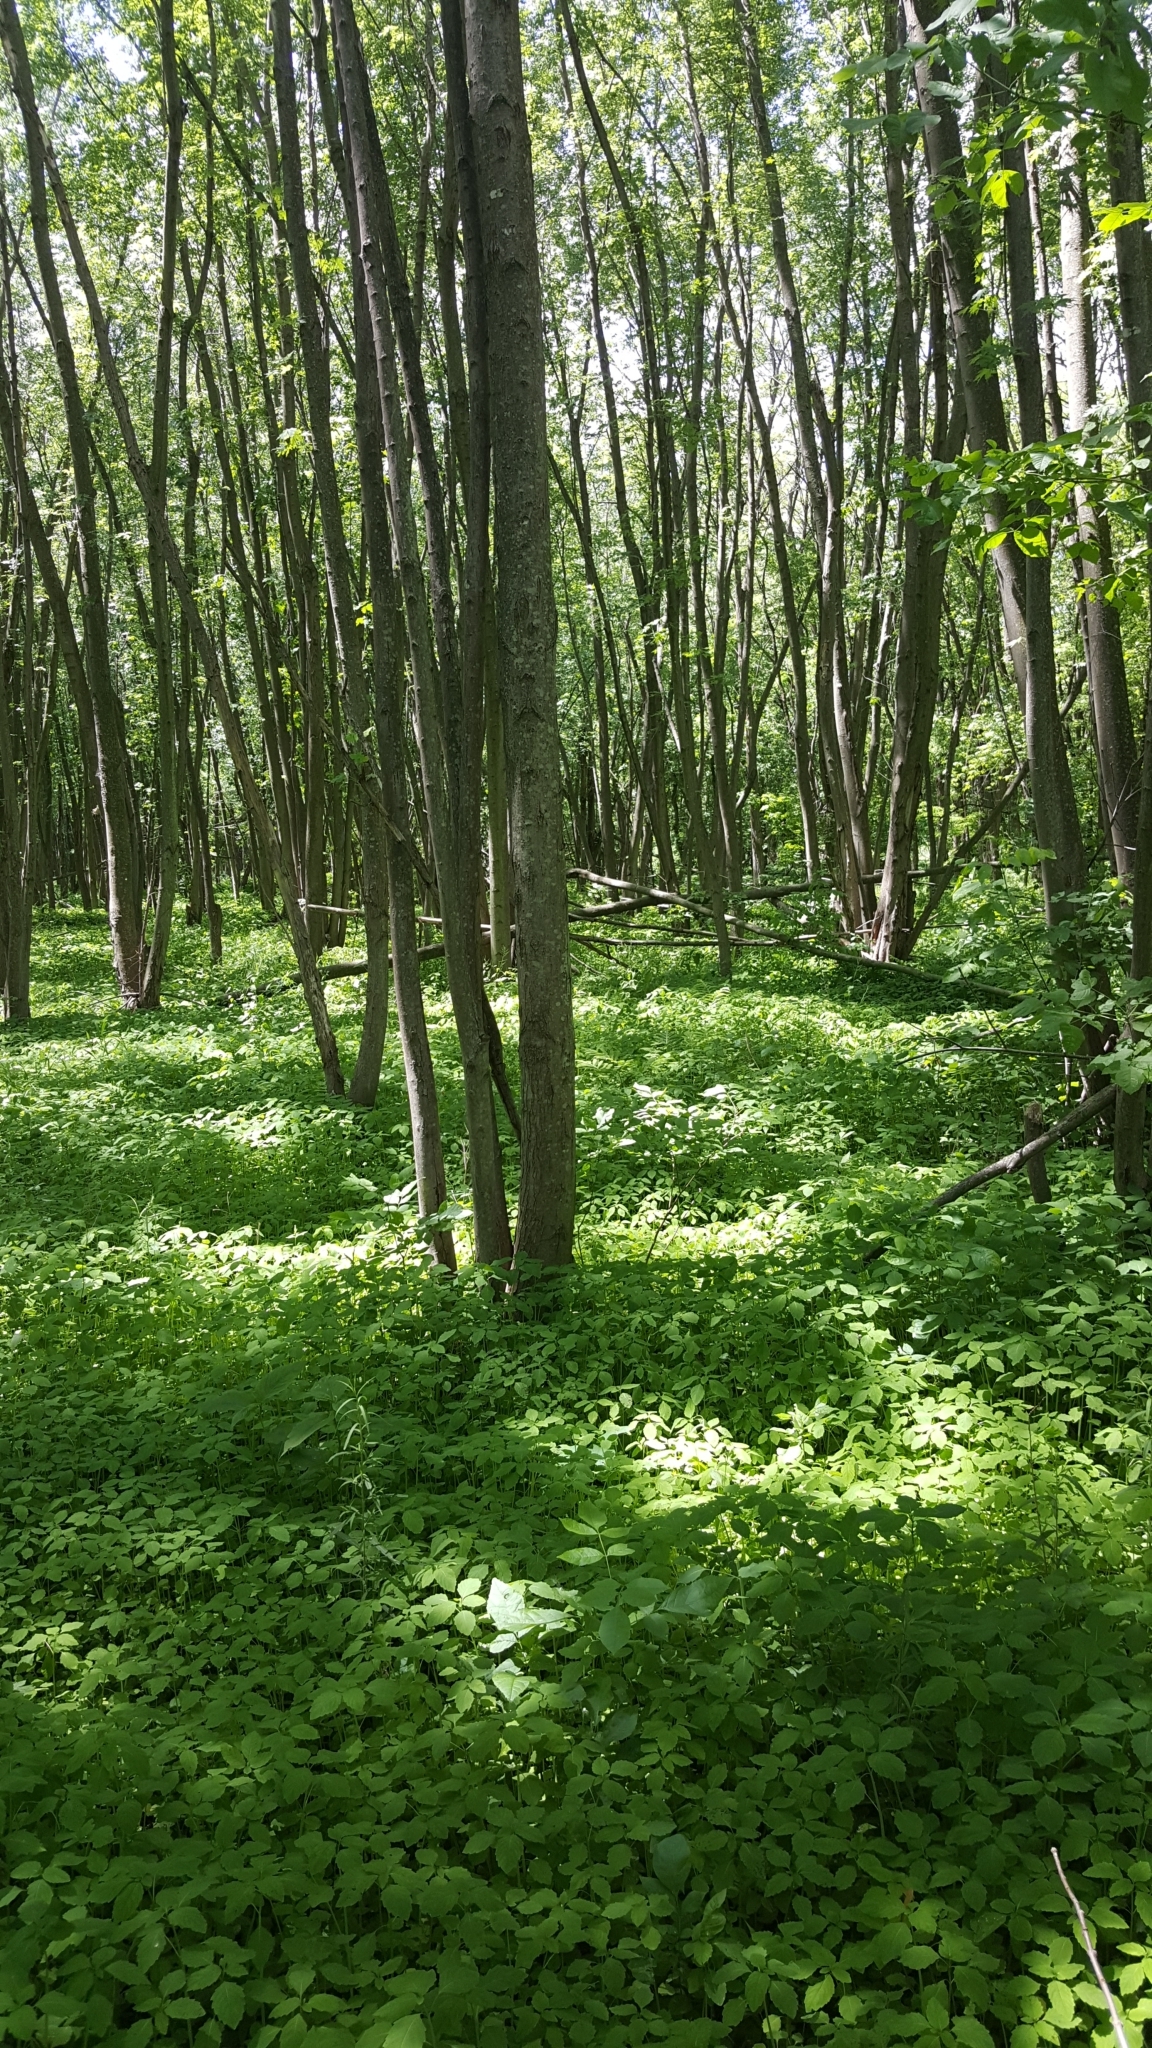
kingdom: Plantae
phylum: Tracheophyta
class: Magnoliopsida
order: Sapindales
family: Sapindaceae
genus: Acer
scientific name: Acer saccharinum
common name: Silver maple
